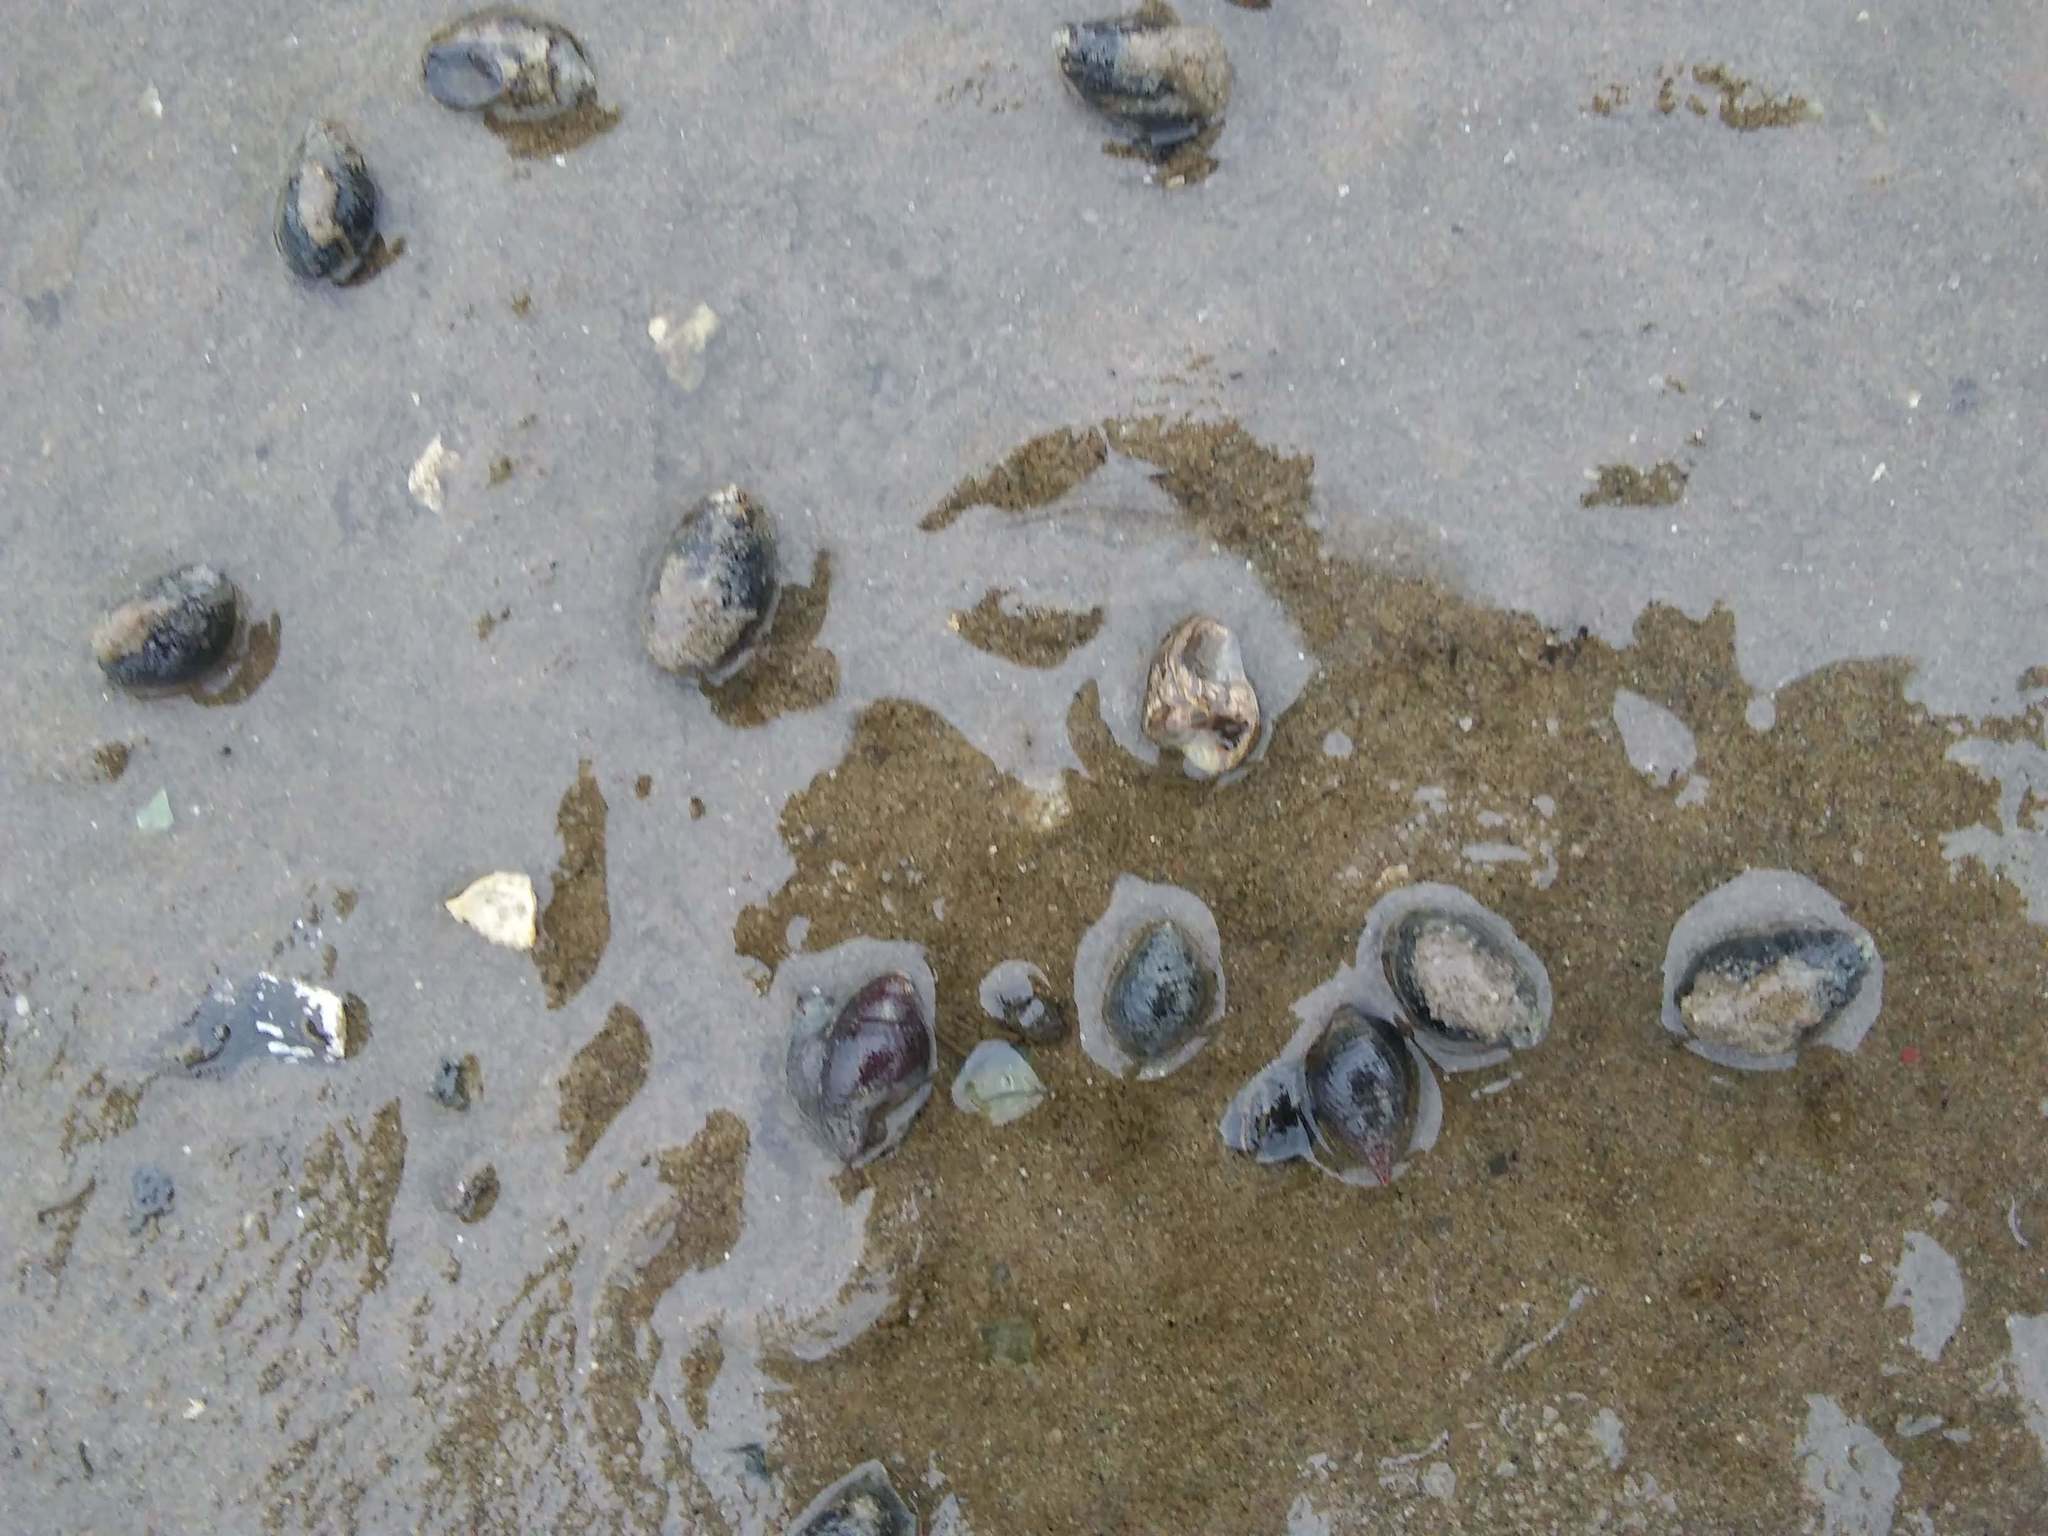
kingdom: Animalia
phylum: Mollusca
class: Gastropoda
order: Neogastropoda
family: Nassariidae
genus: Ilyanassa
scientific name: Ilyanassa obsoleta
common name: Eastern mudsnail
